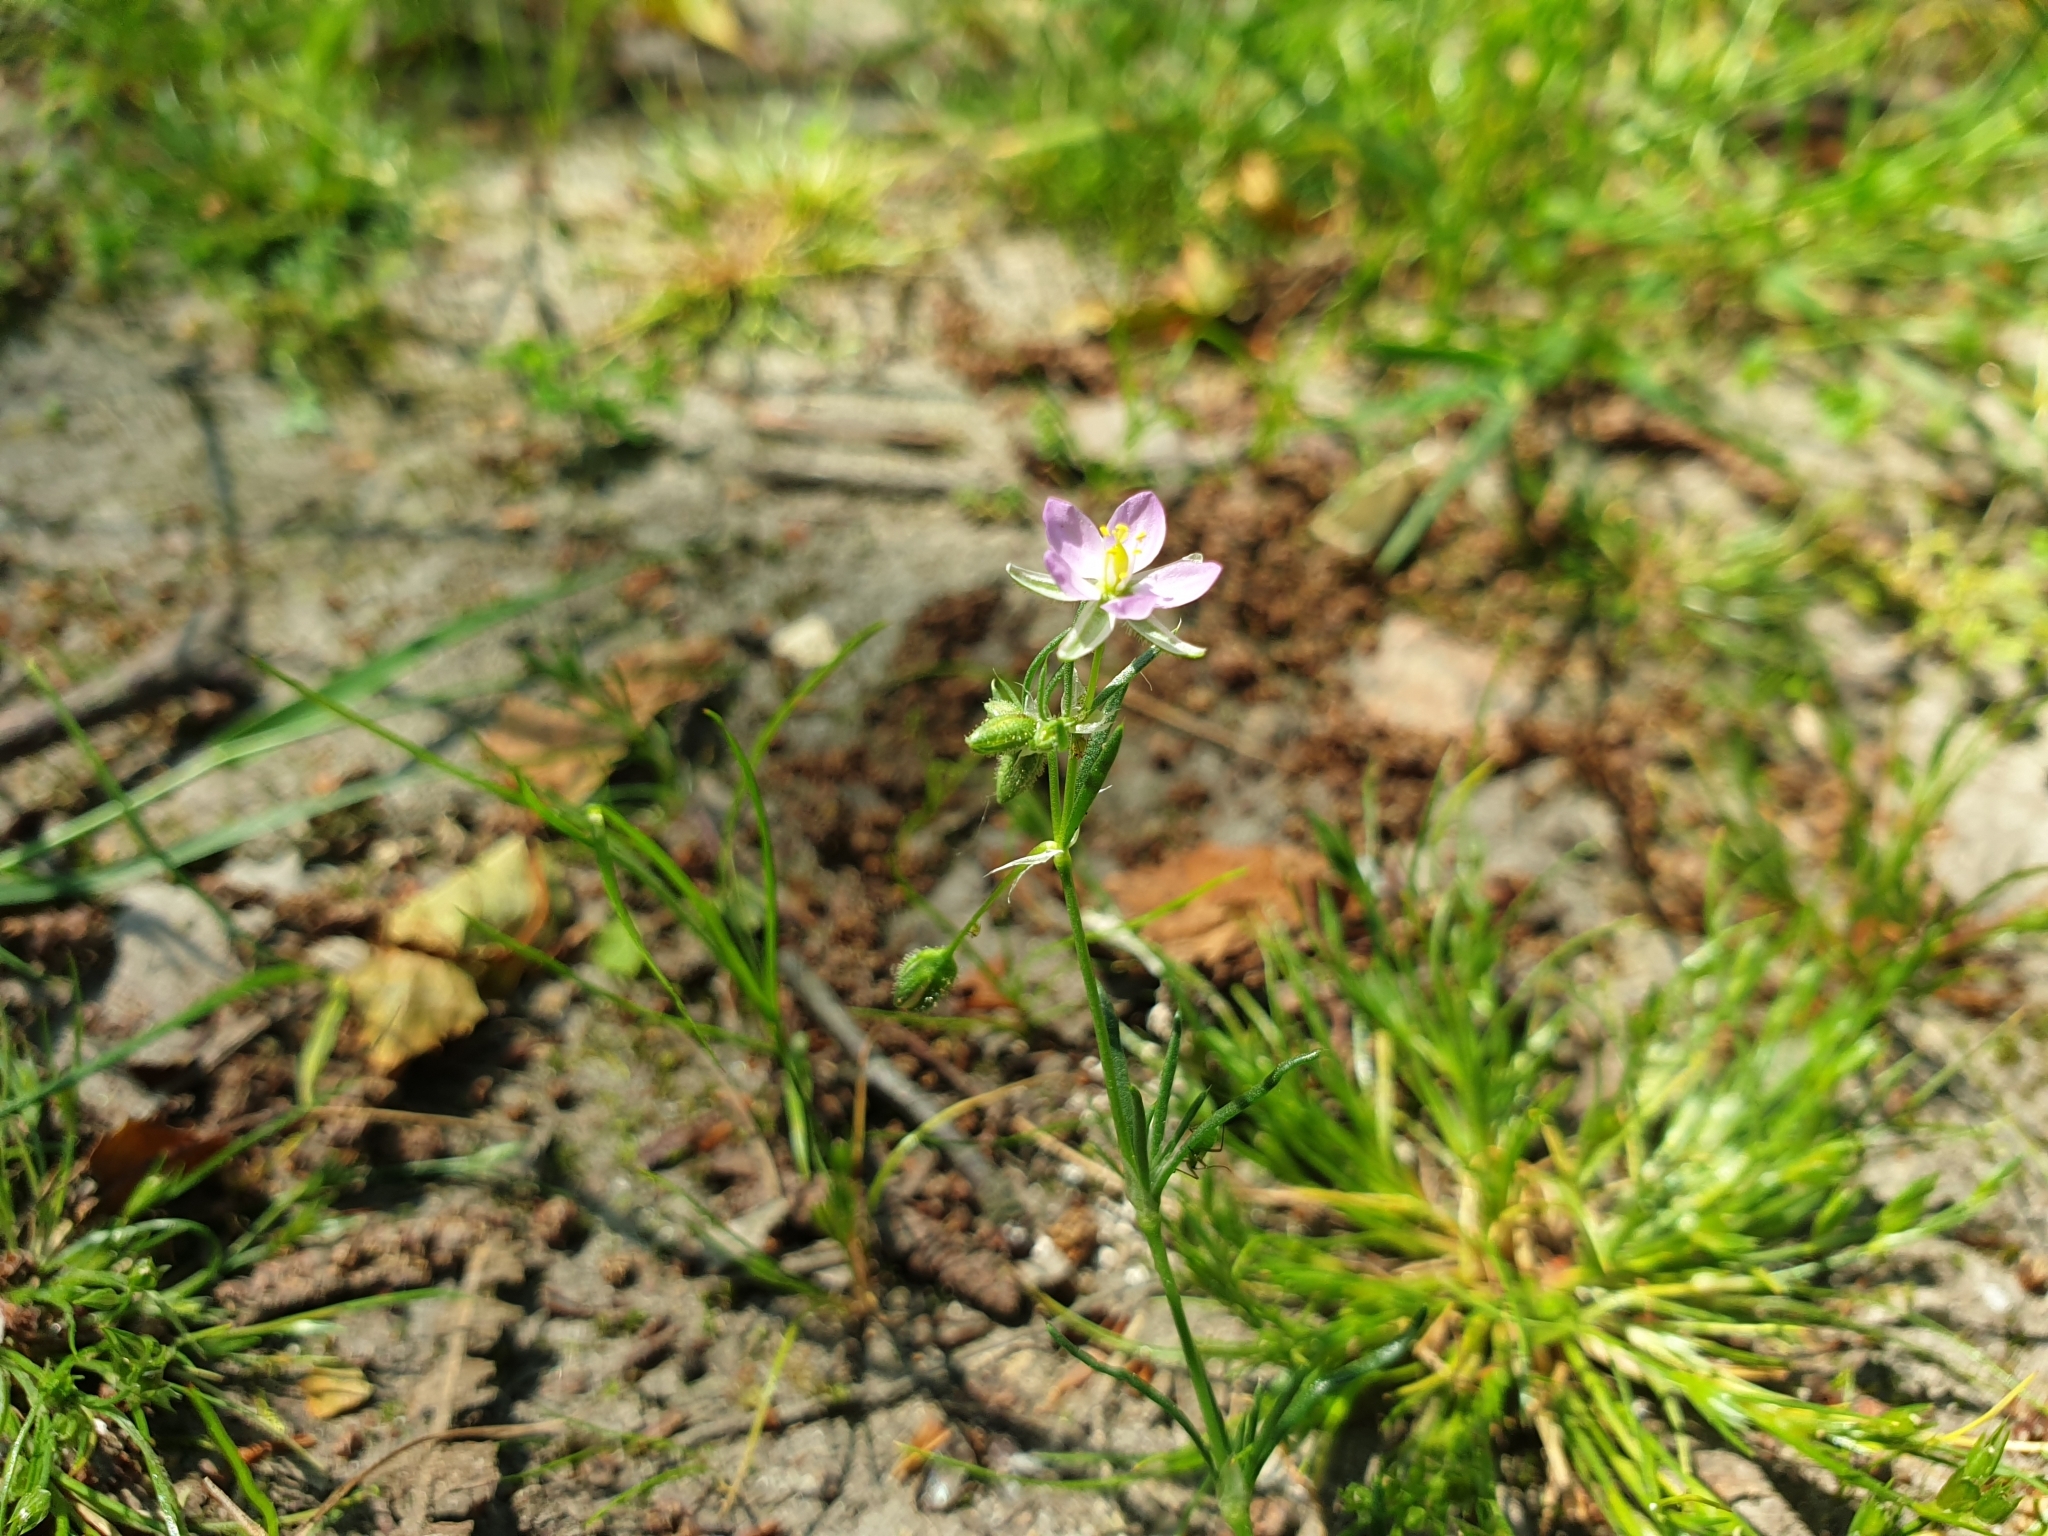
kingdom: Plantae
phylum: Tracheophyta
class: Magnoliopsida
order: Caryophyllales
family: Caryophyllaceae
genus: Spergularia
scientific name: Spergularia rubra
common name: Red sand-spurrey
